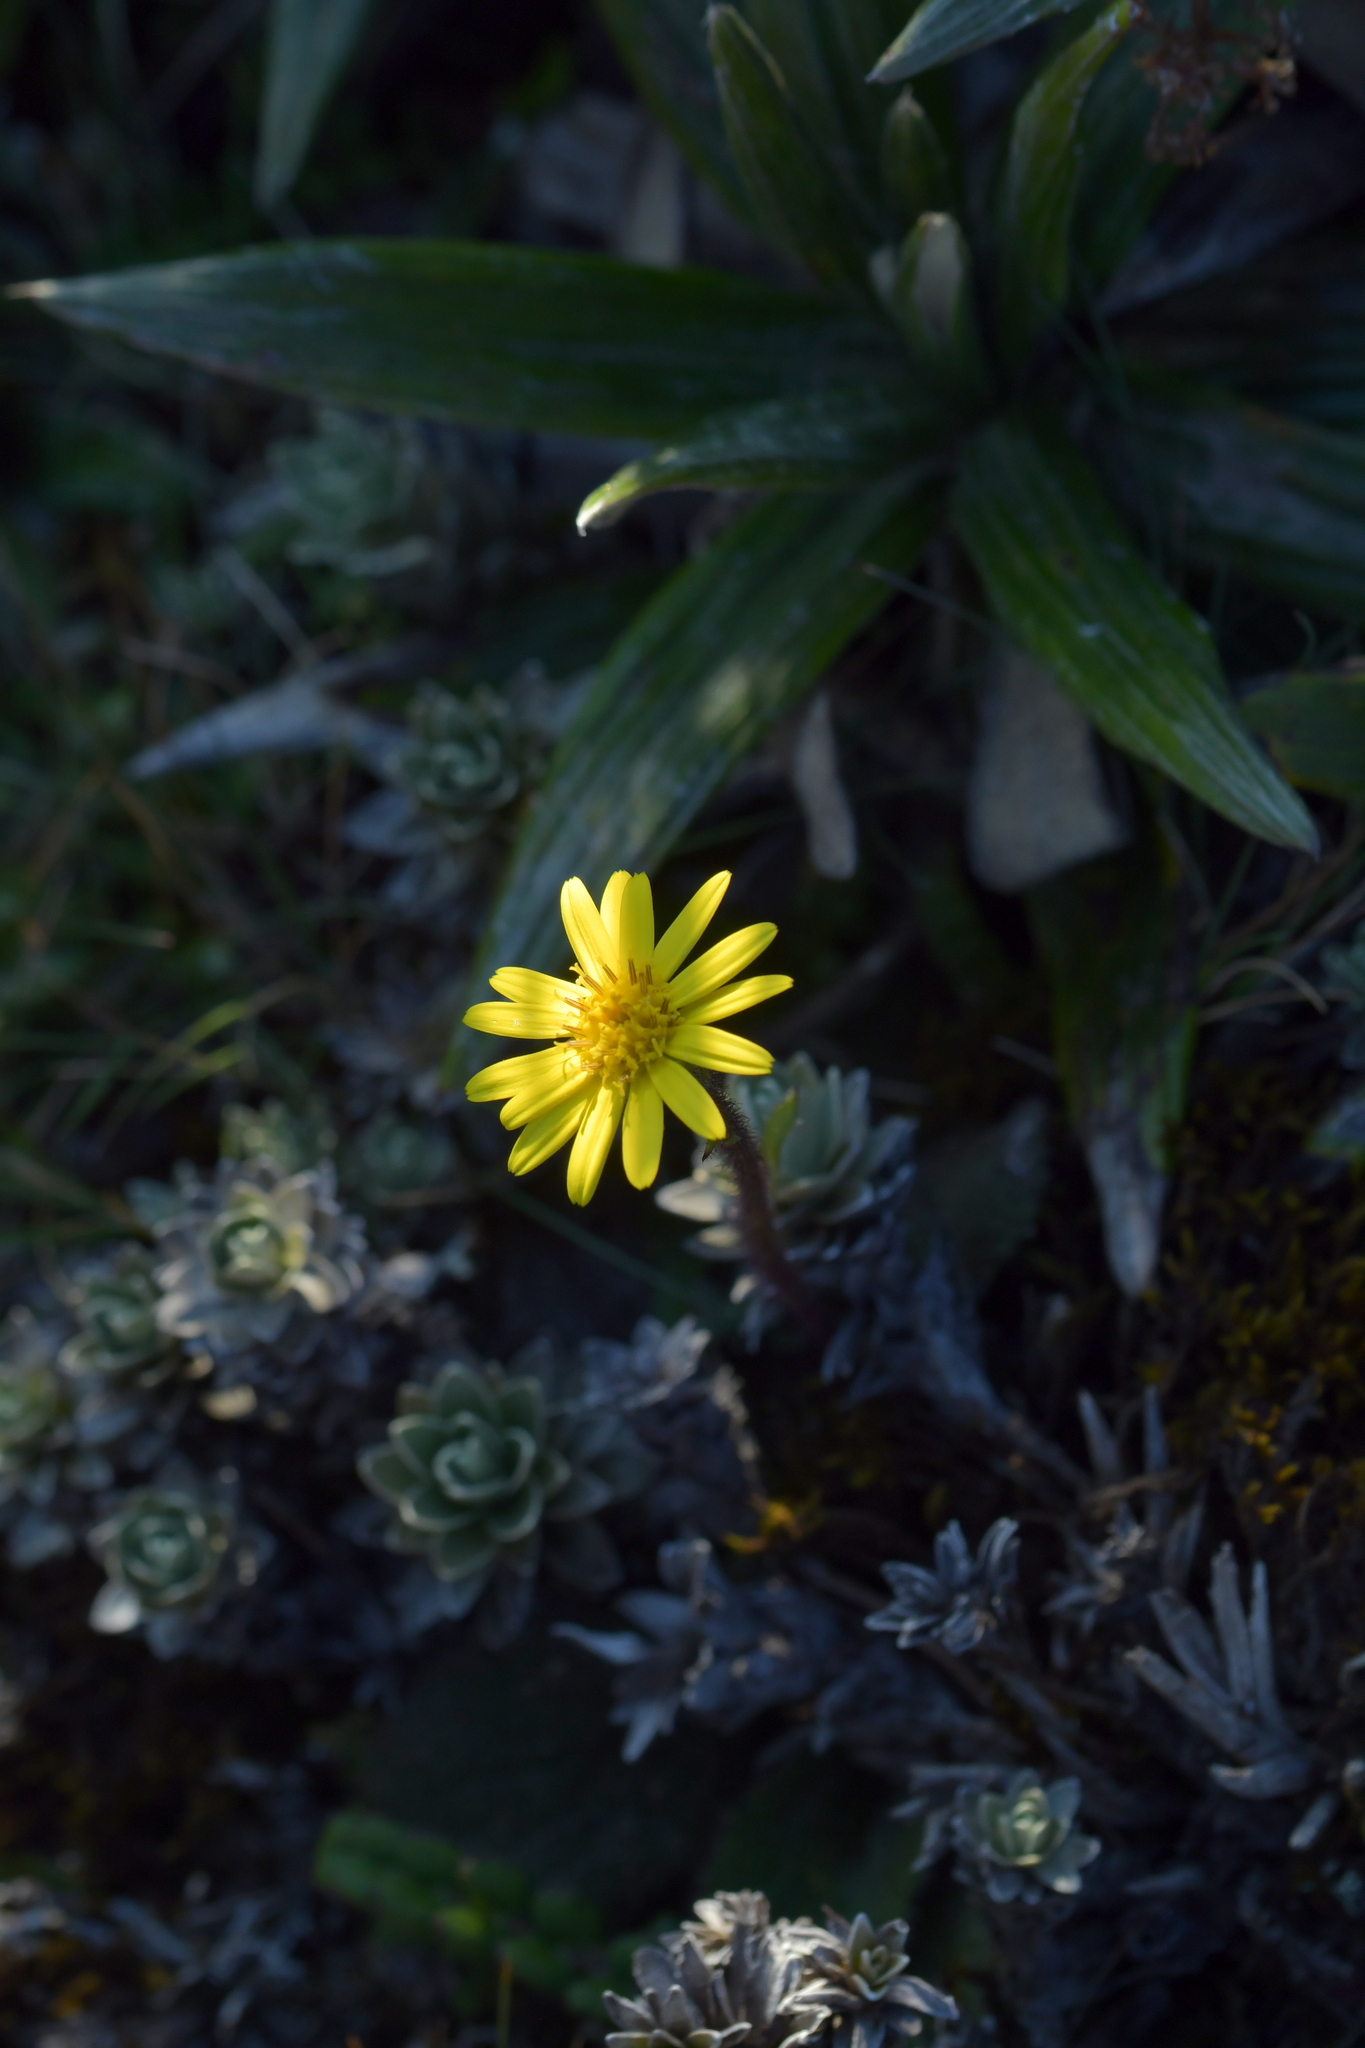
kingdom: Plantae
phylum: Tracheophyta
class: Magnoliopsida
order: Asterales
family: Asteraceae
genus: Brachyglottis
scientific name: Brachyglottis lagopus
